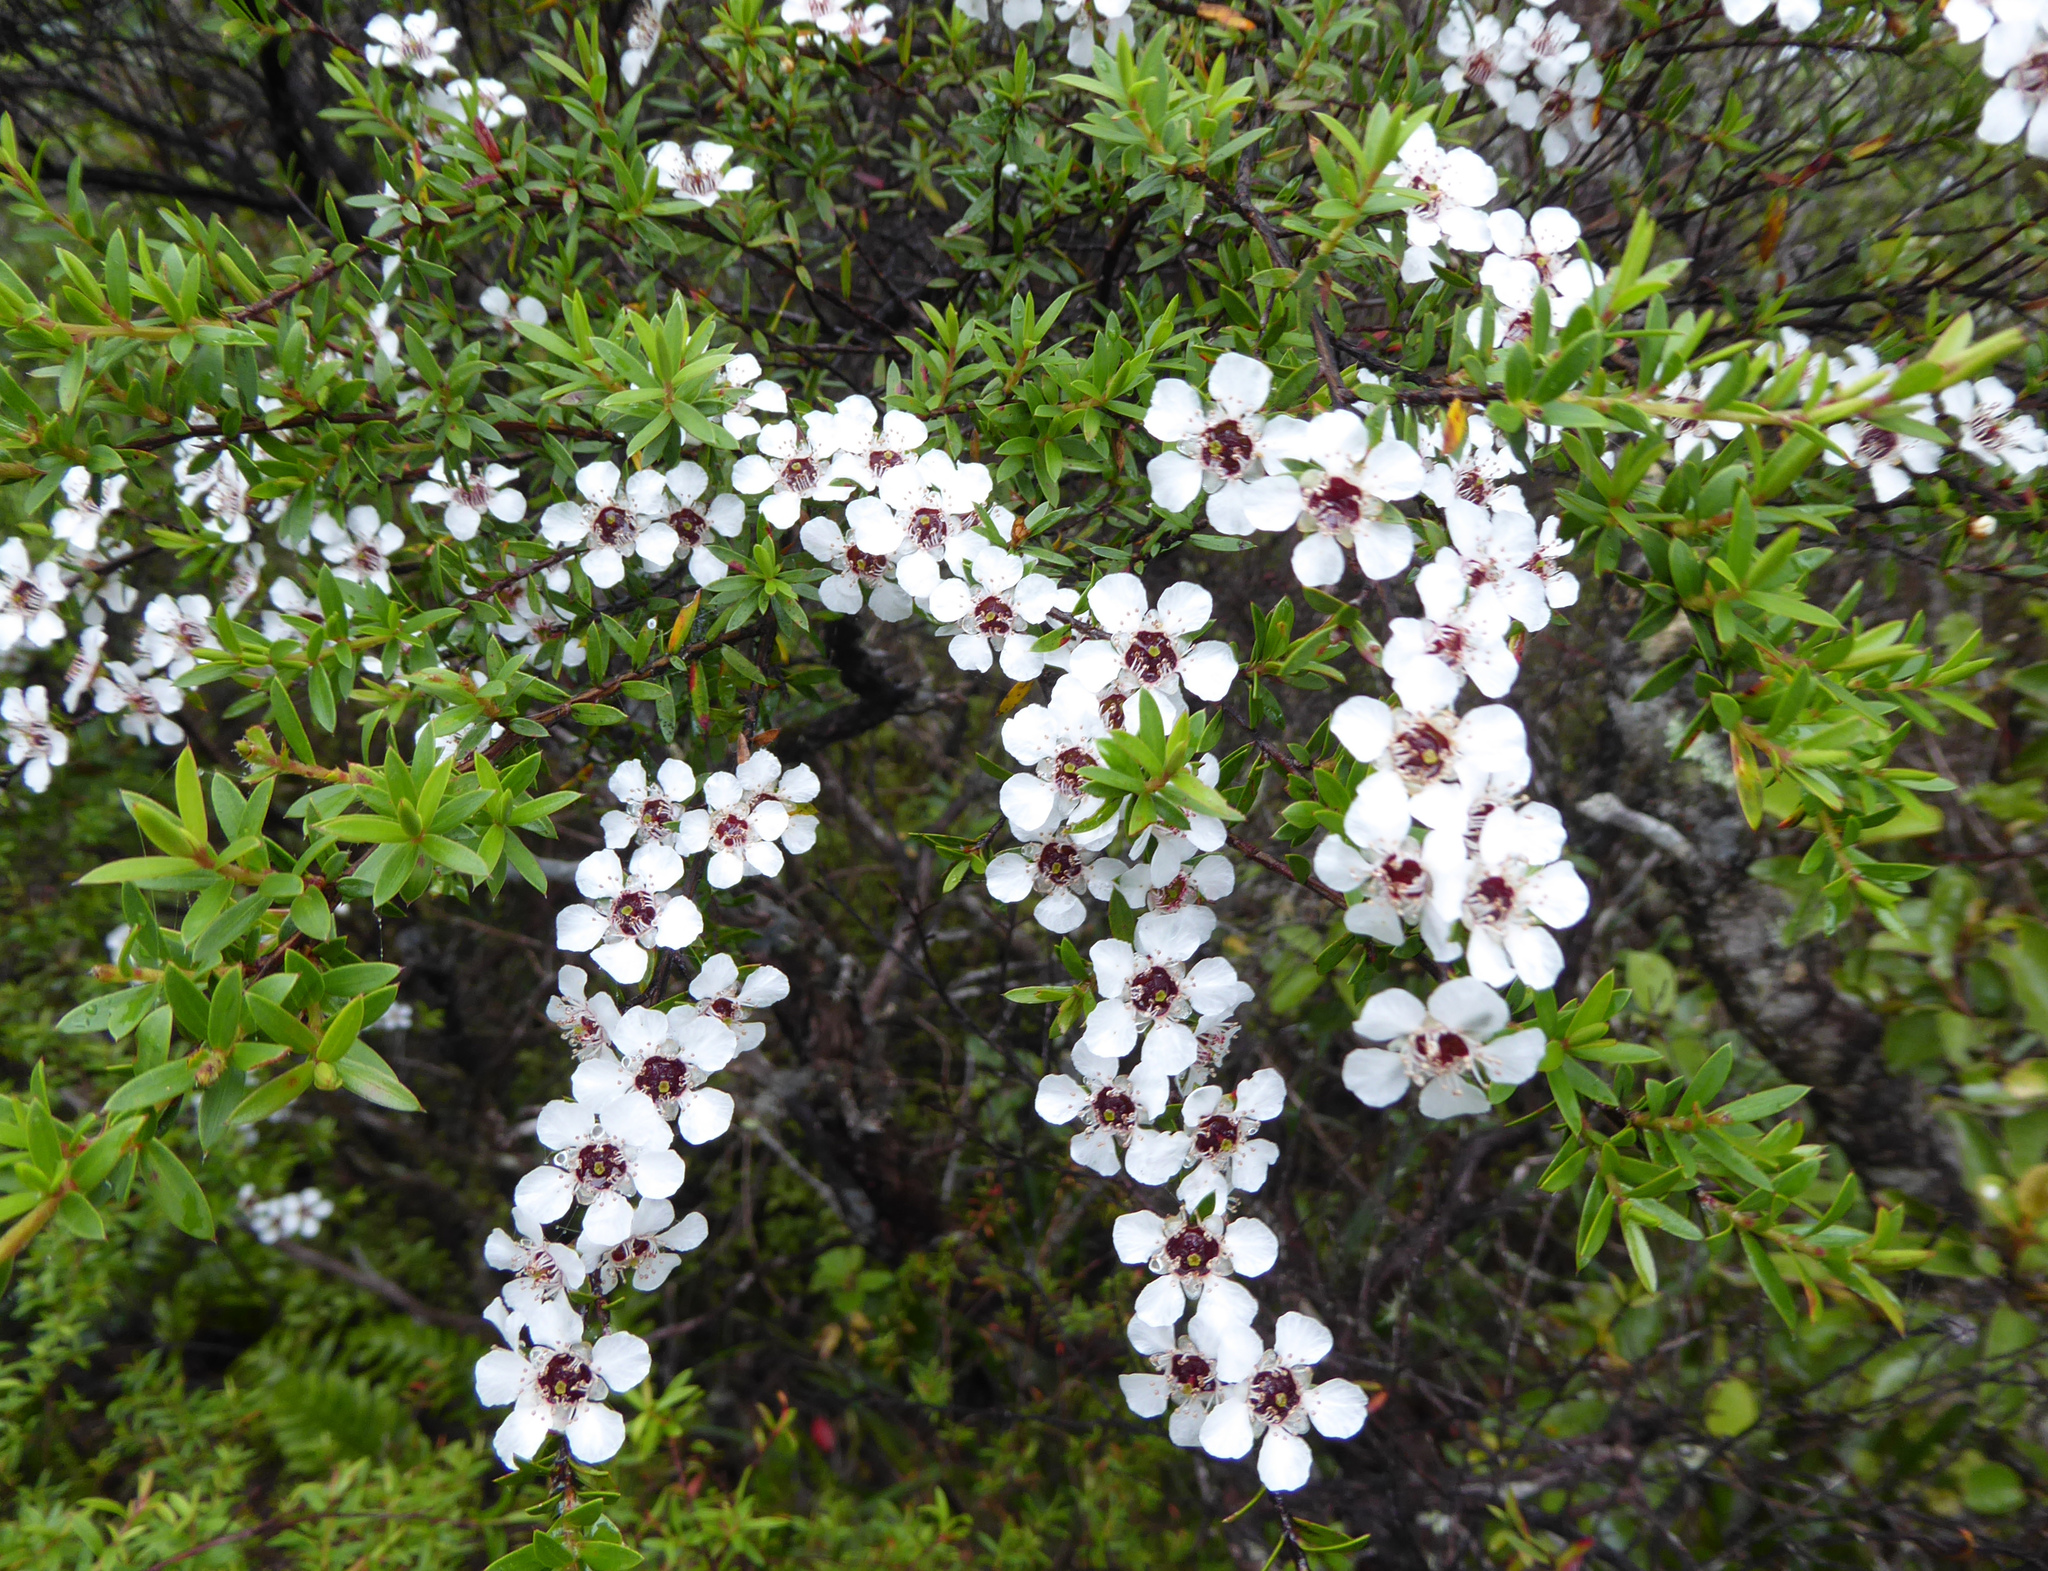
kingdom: Plantae
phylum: Tracheophyta
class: Magnoliopsida
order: Myrtales
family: Myrtaceae
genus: Leptospermum
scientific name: Leptospermum scoparium
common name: Broom tea-tree
